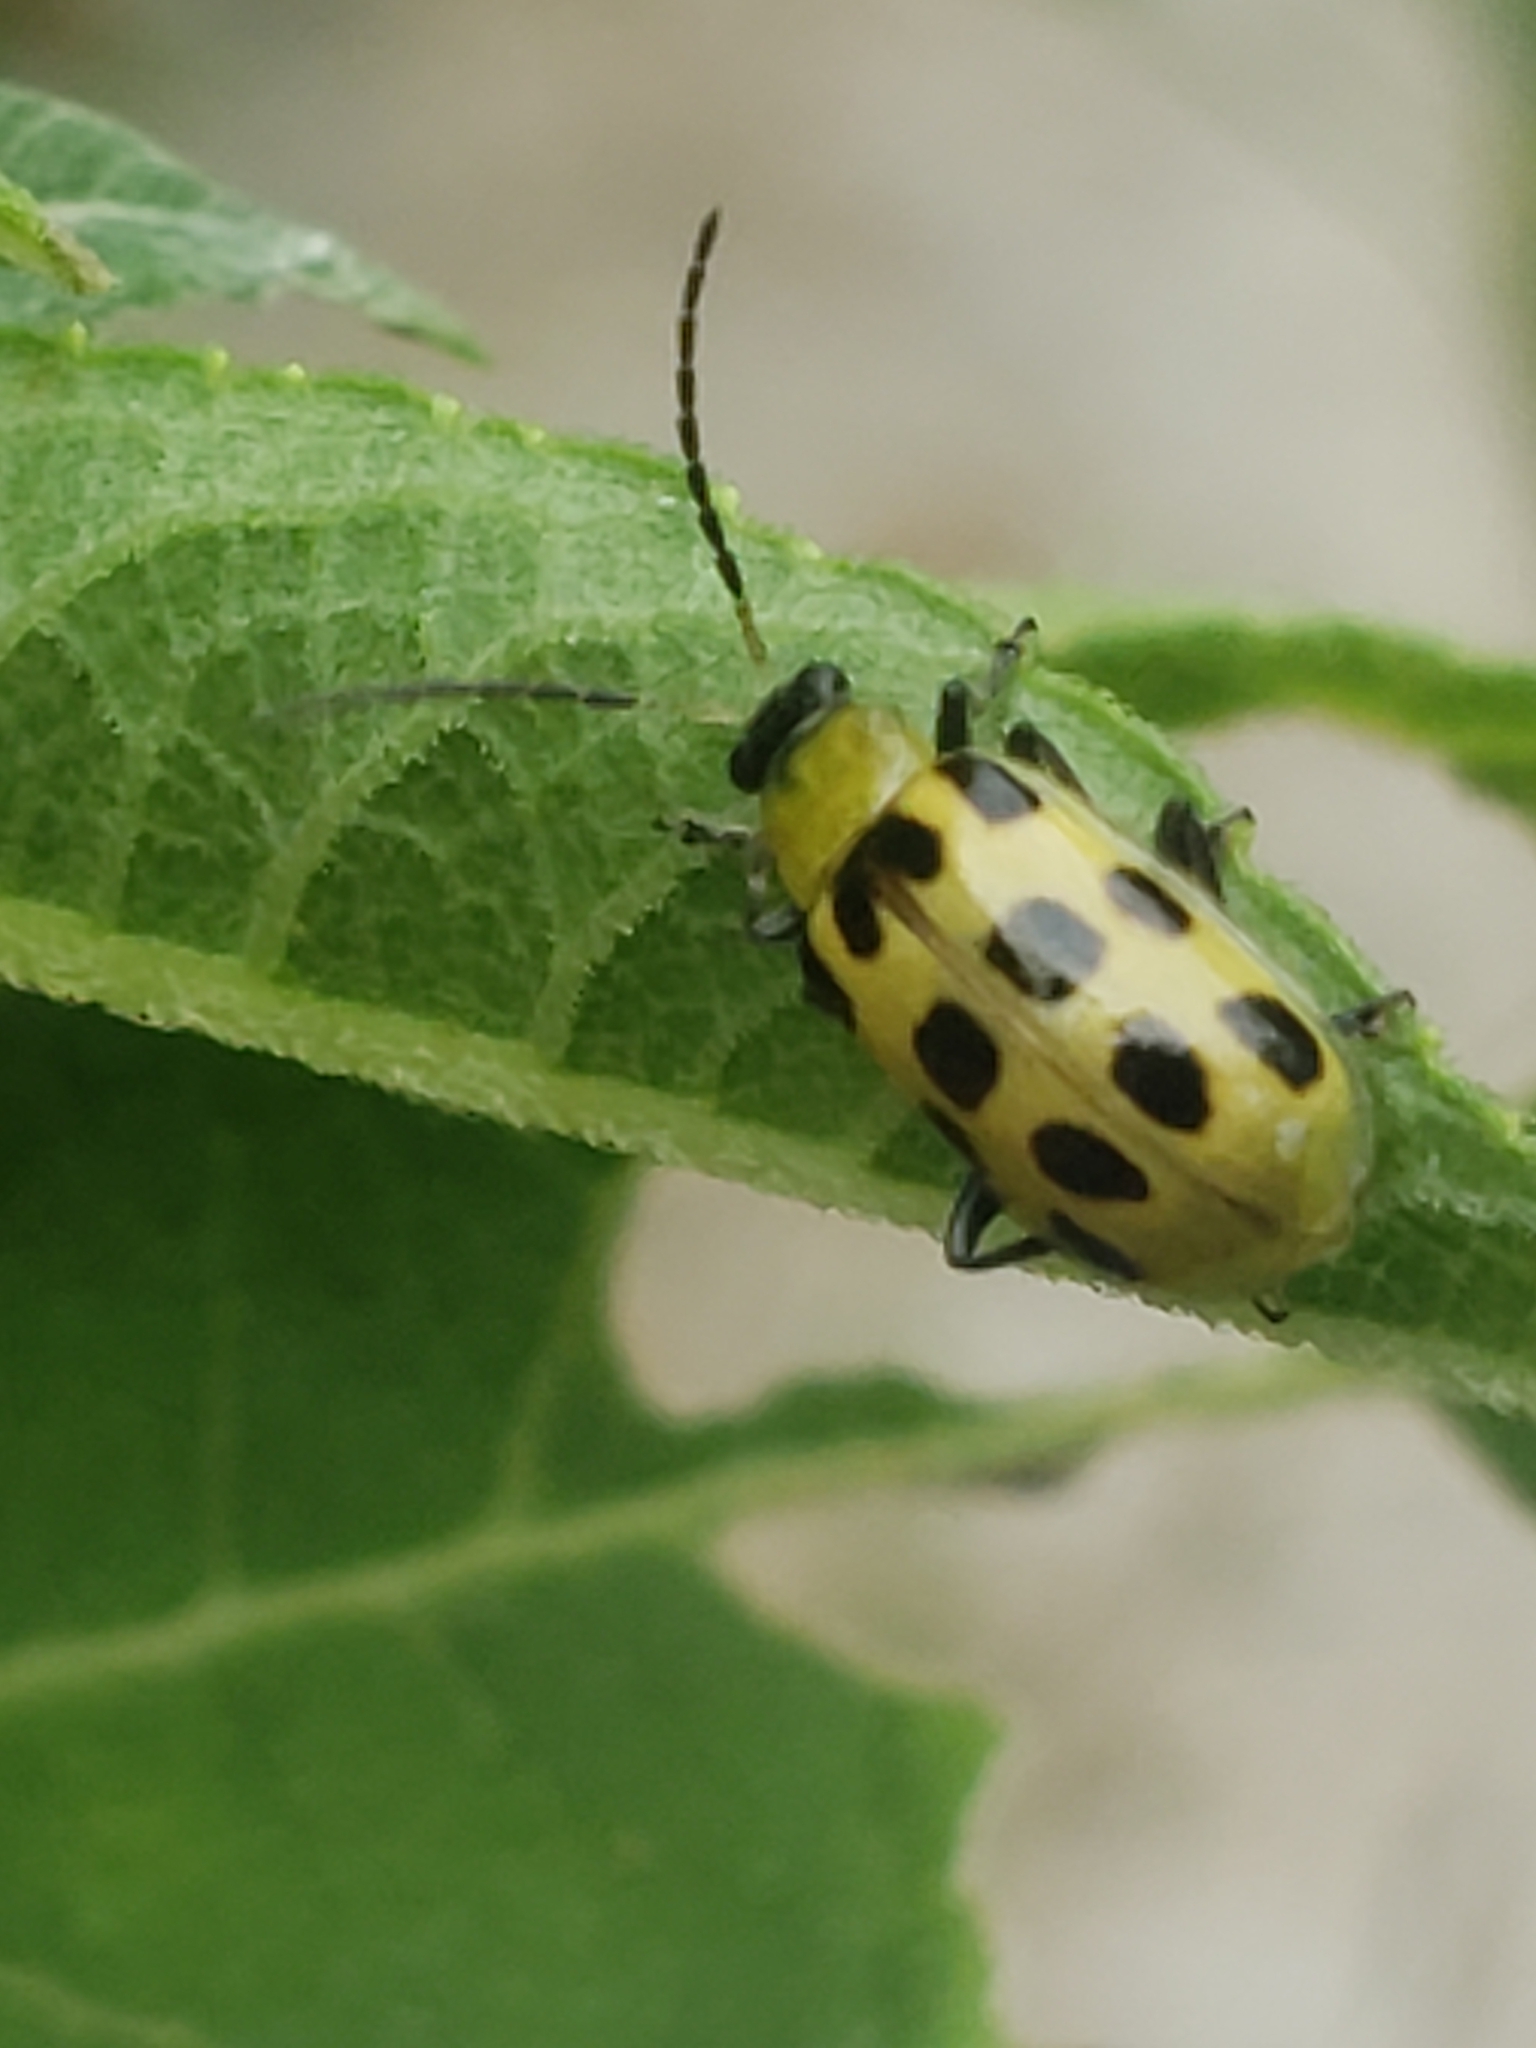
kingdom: Animalia
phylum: Arthropoda
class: Insecta
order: Coleoptera
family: Chrysomelidae
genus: Diabrotica
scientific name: Diabrotica undecimpunctata
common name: Spotted cucumber beetle
